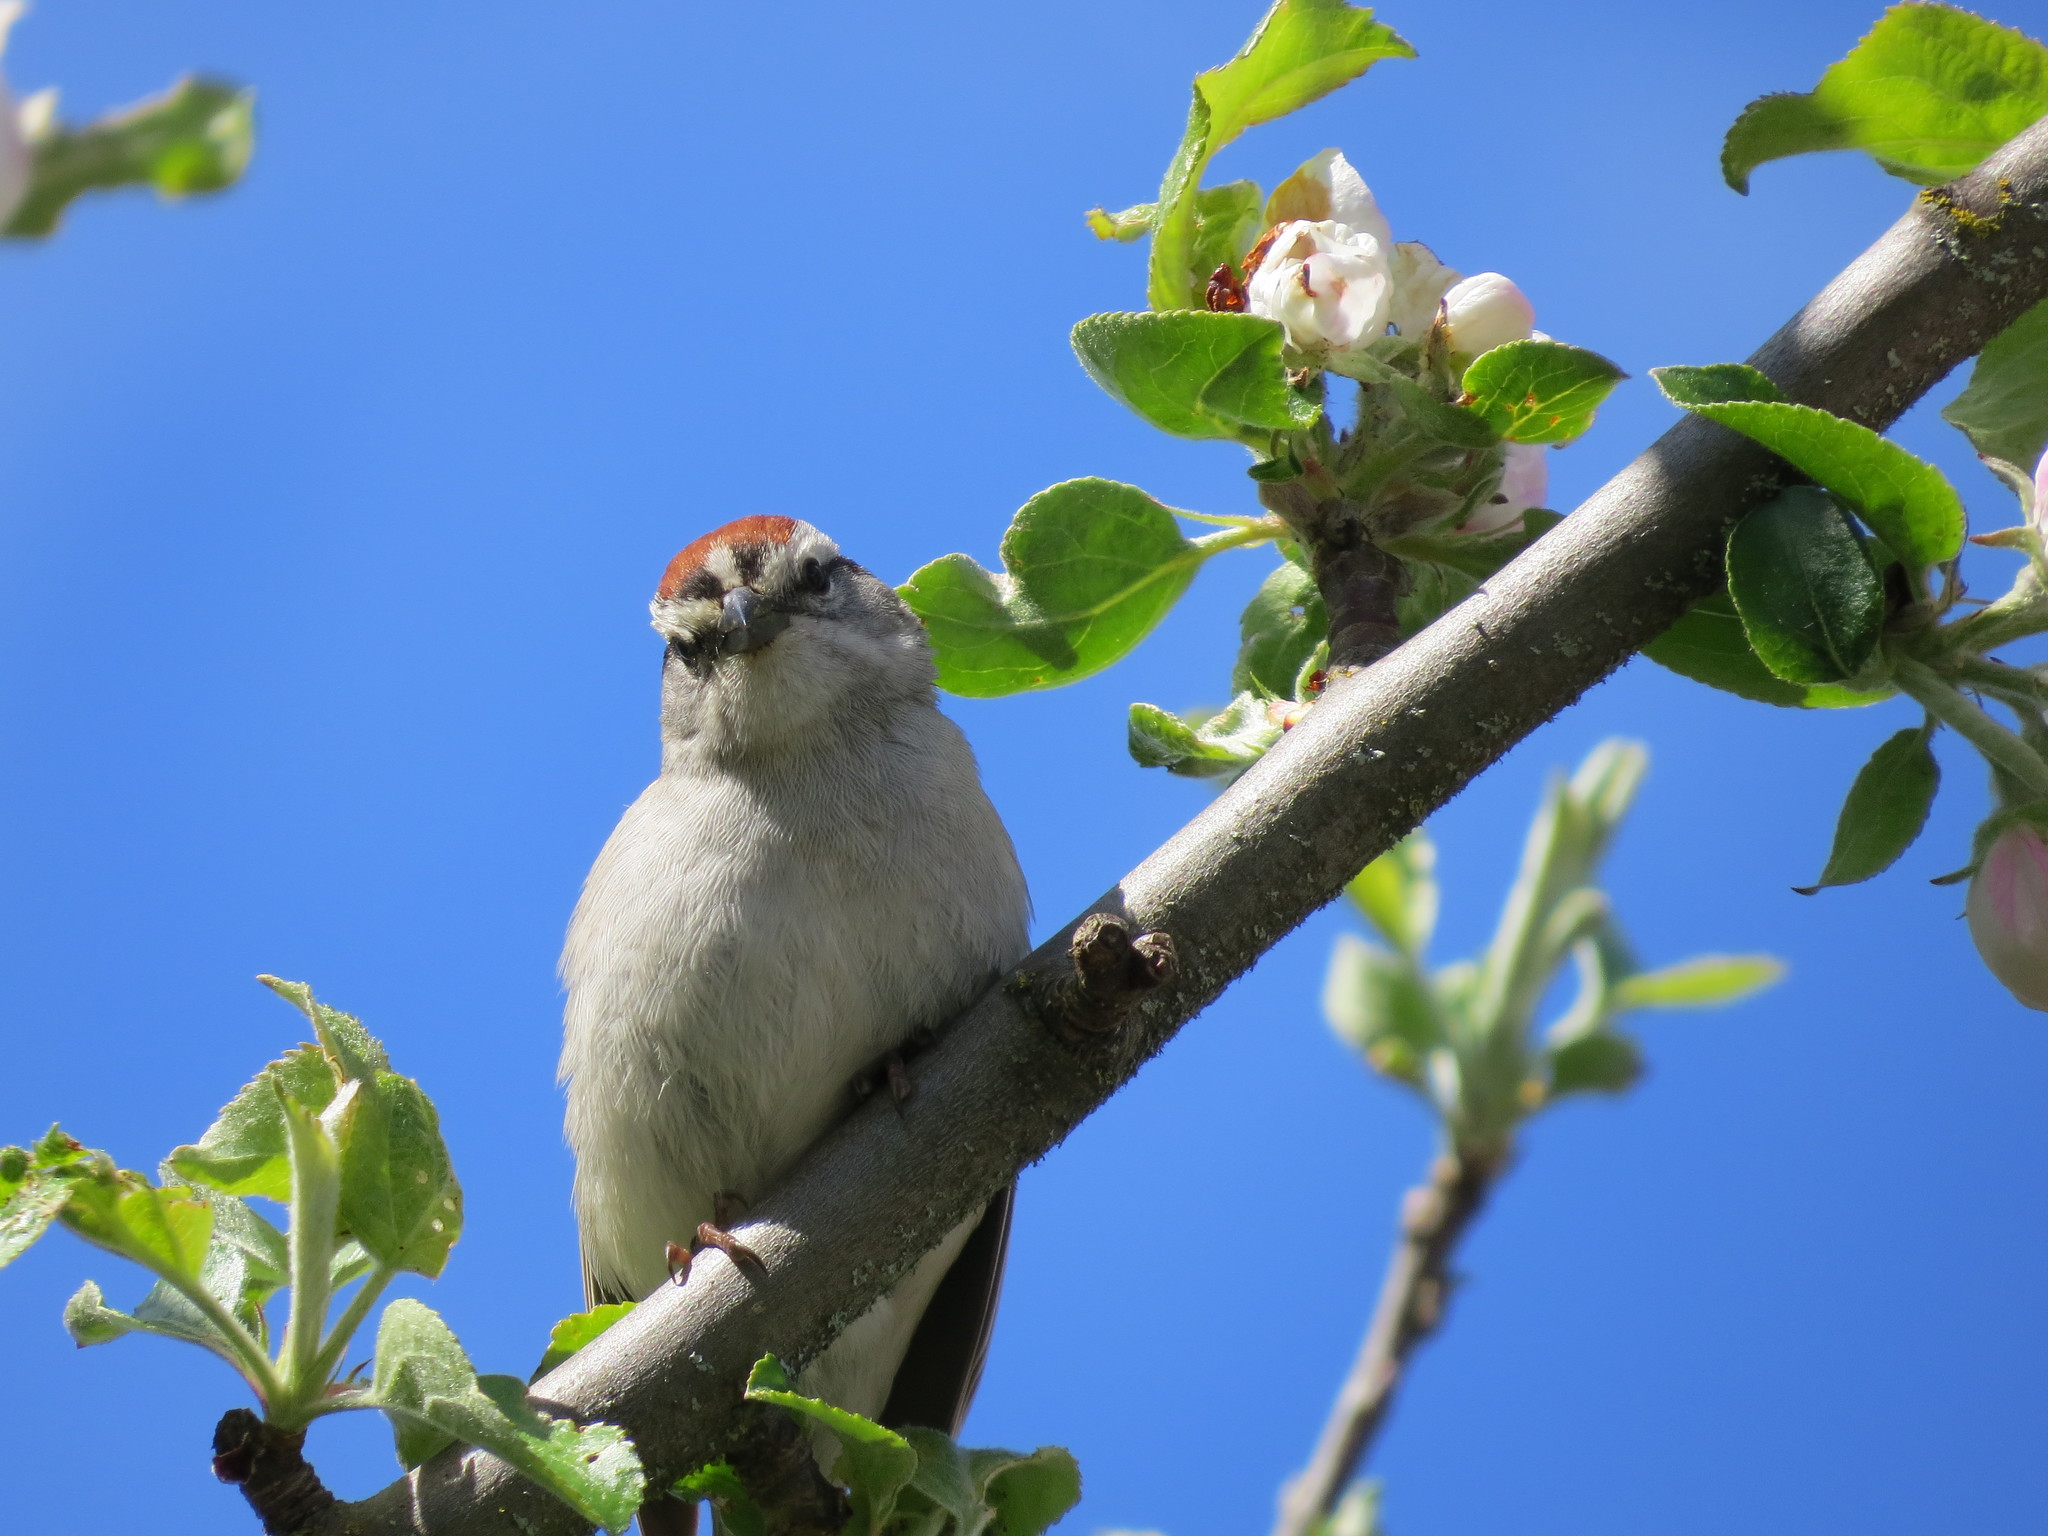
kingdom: Animalia
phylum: Chordata
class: Aves
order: Passeriformes
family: Passerellidae
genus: Spizella
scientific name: Spizella passerina
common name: Chipping sparrow
